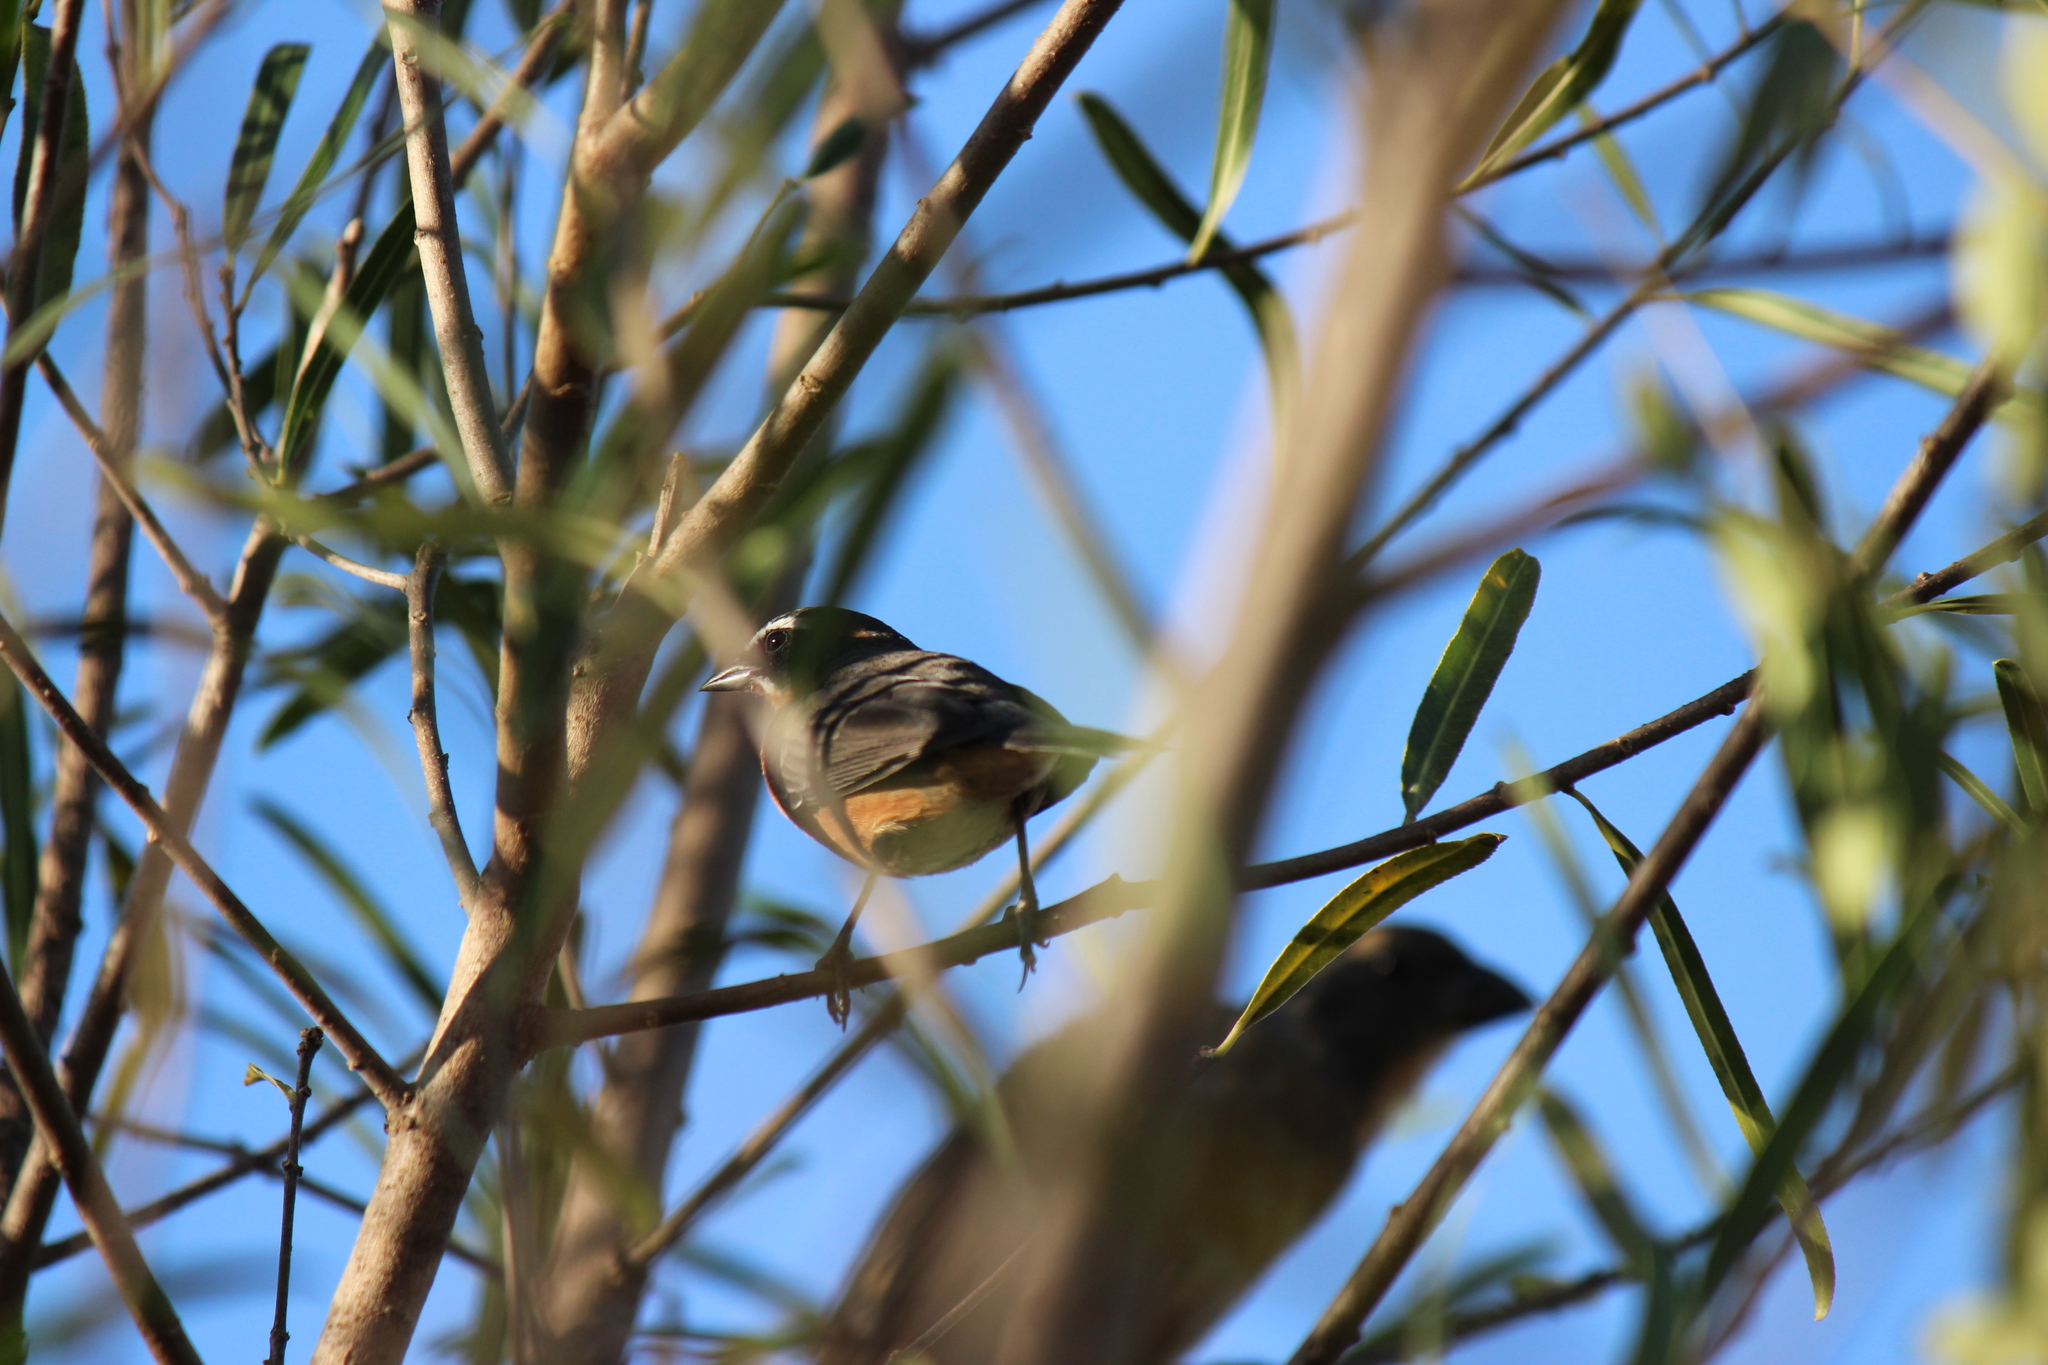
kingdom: Animalia
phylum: Chordata
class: Aves
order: Passeriformes
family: Thraupidae
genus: Poospiza
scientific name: Poospiza nigrorufa
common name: Black-and-rufous warbling finch
